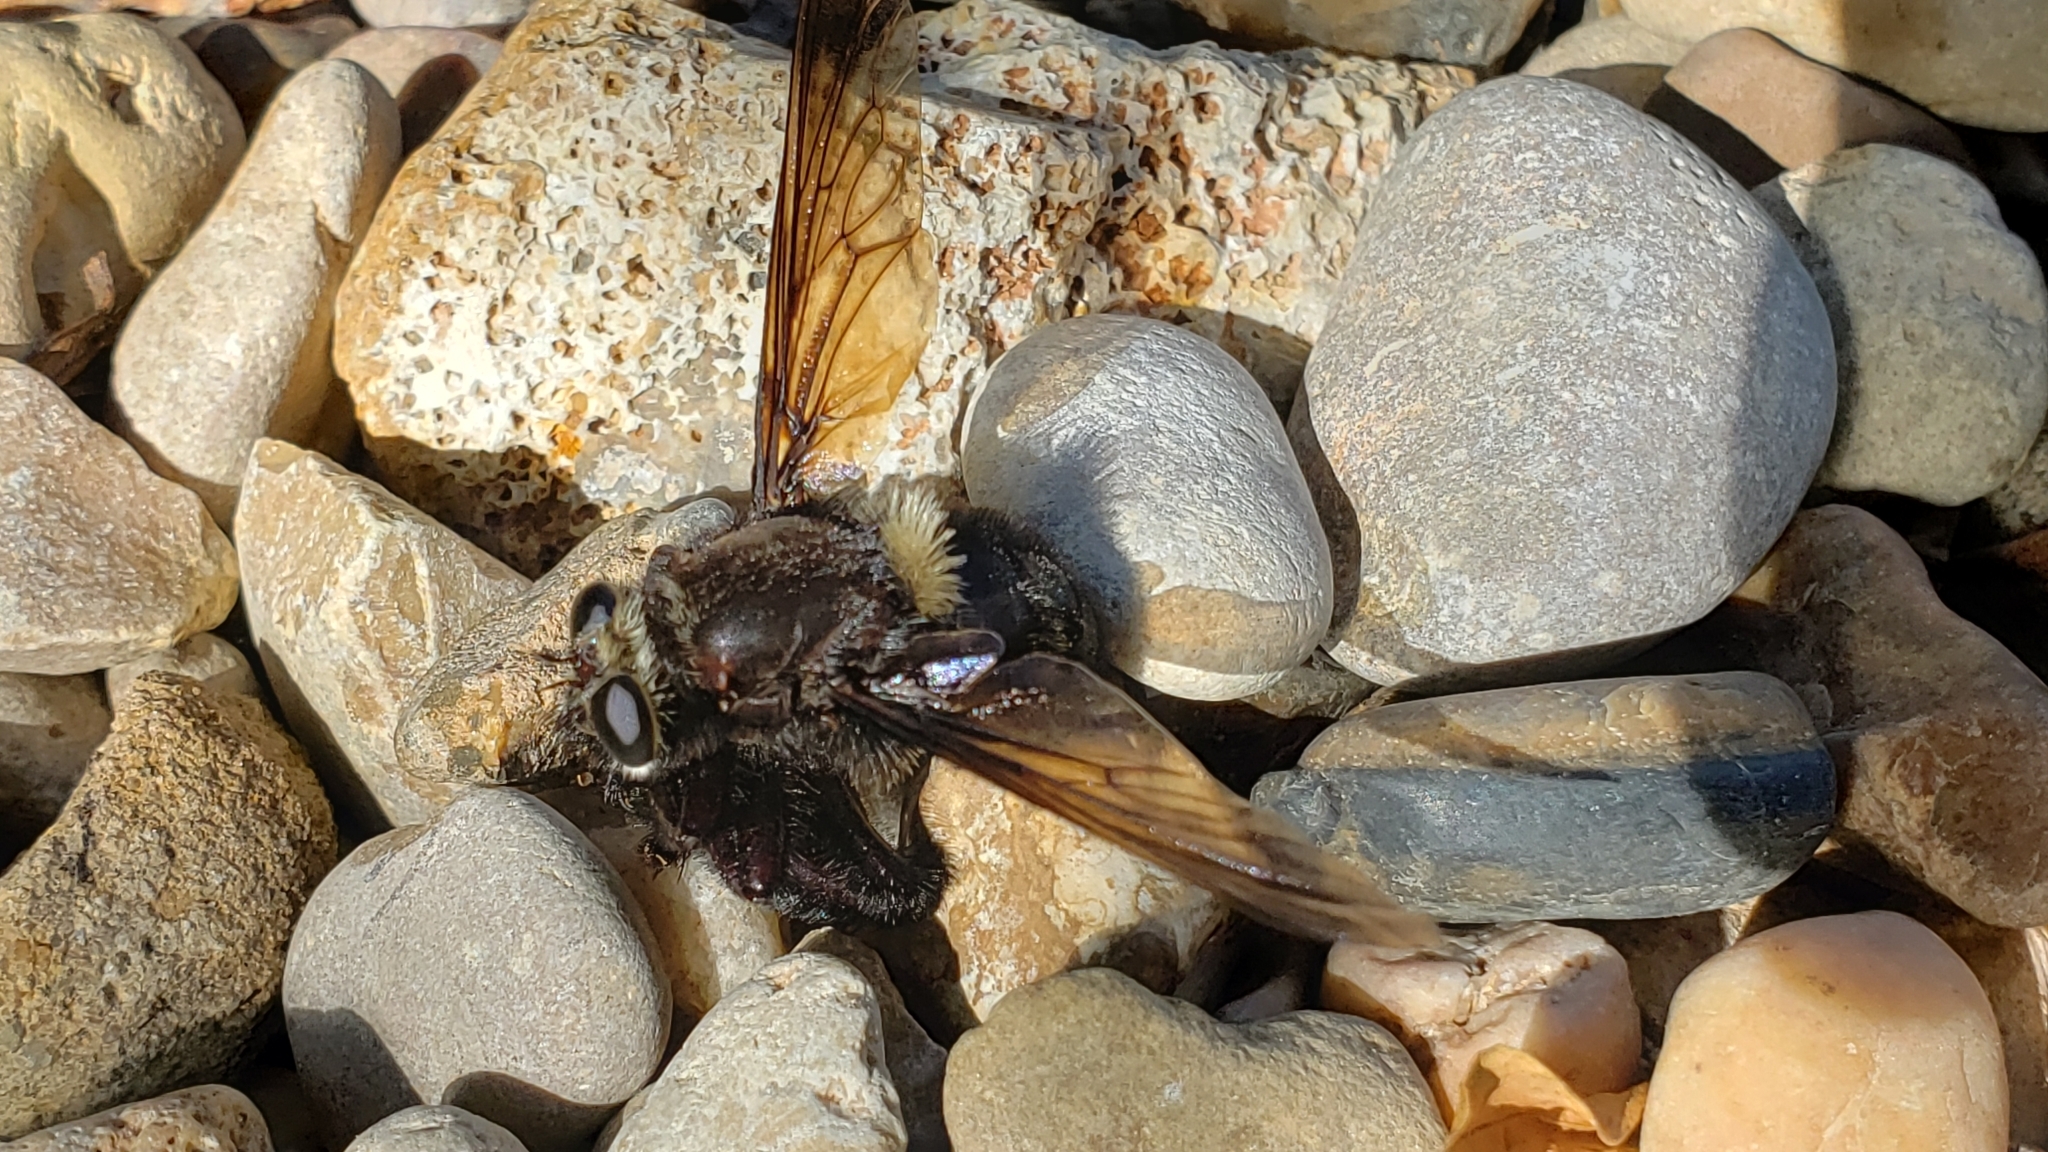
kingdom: Animalia
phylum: Arthropoda
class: Insecta
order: Diptera
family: Asilidae
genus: Mallophora
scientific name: Mallophora leschenaultii
